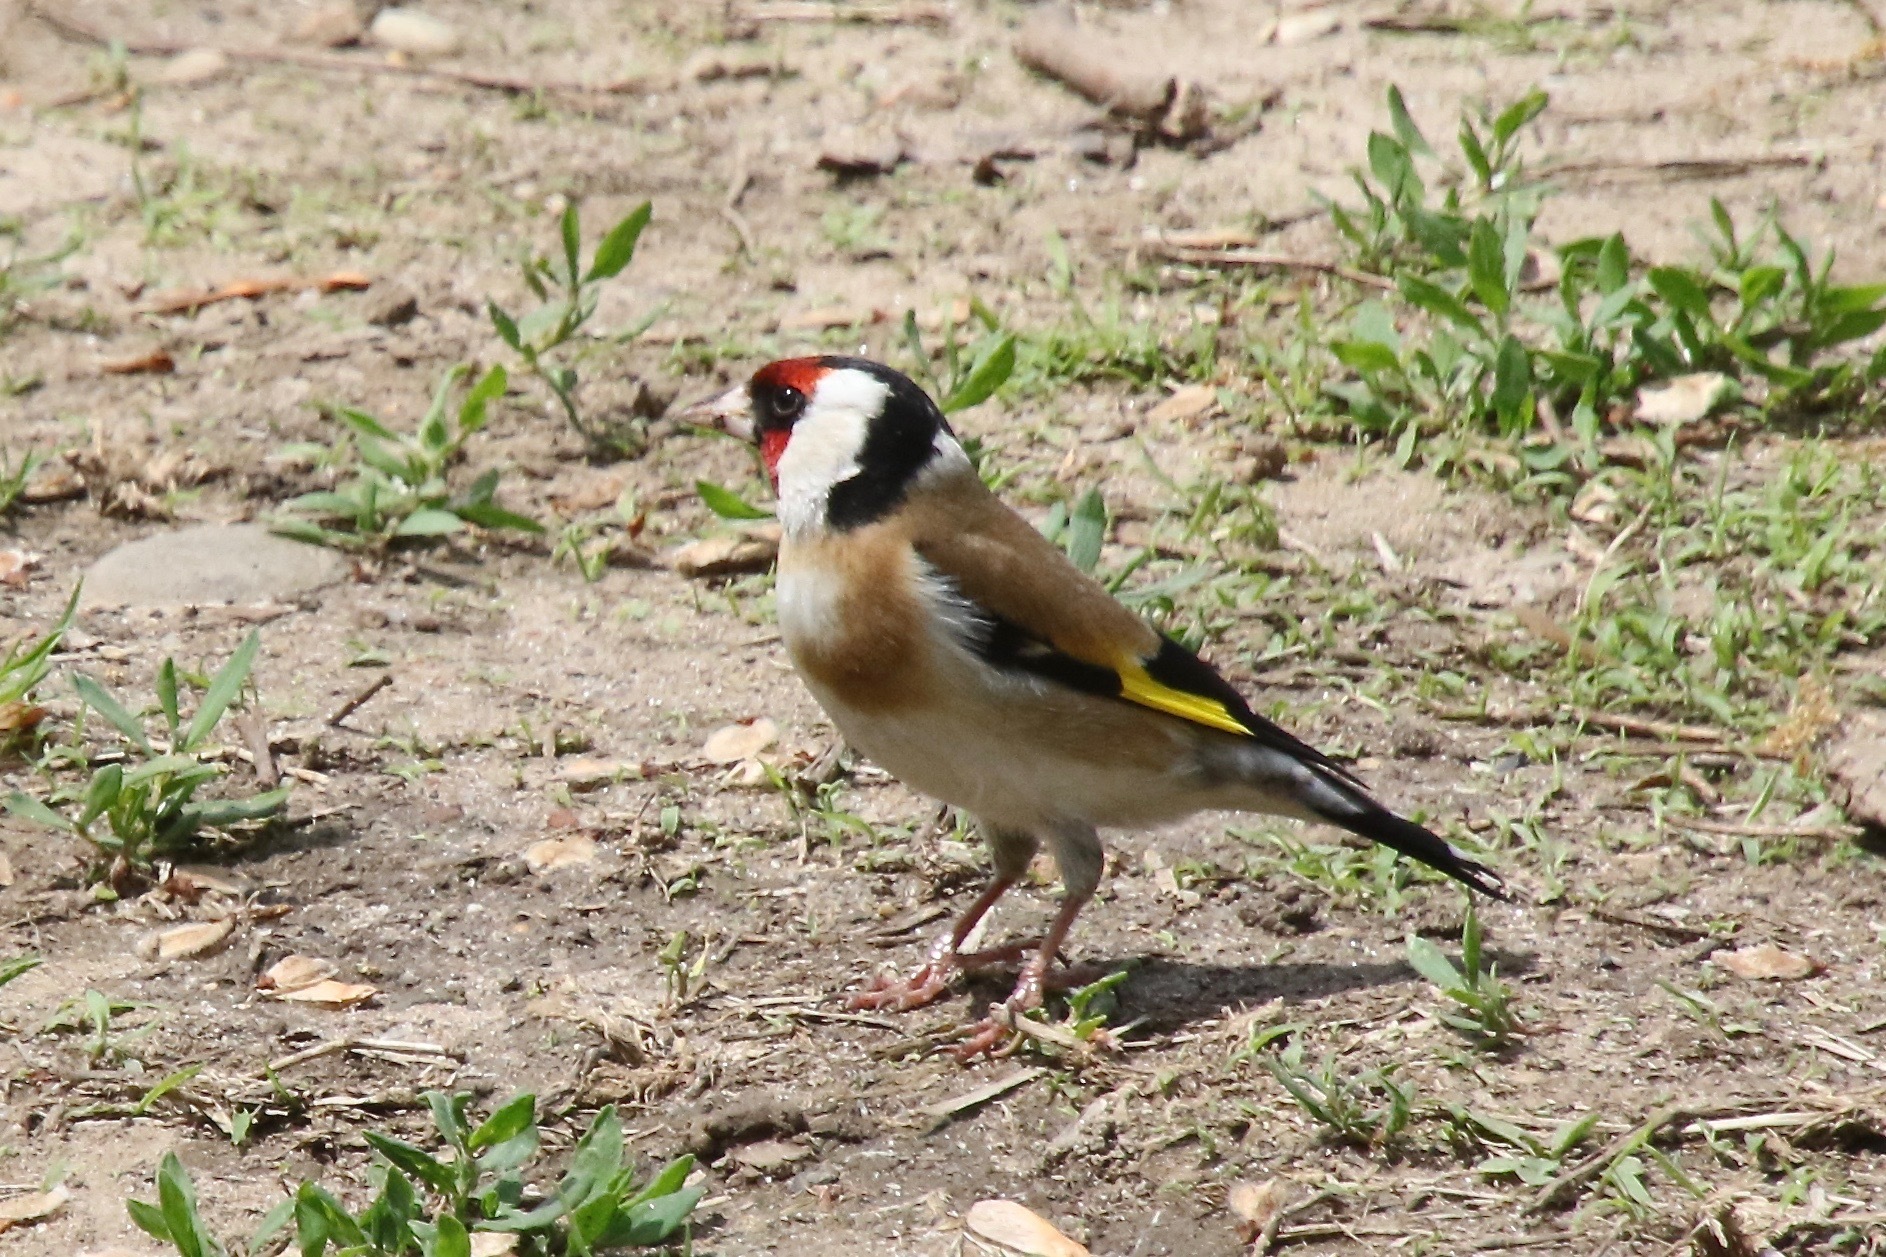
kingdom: Animalia
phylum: Chordata
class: Aves
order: Passeriformes
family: Fringillidae
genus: Carduelis
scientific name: Carduelis carduelis
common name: European goldfinch
